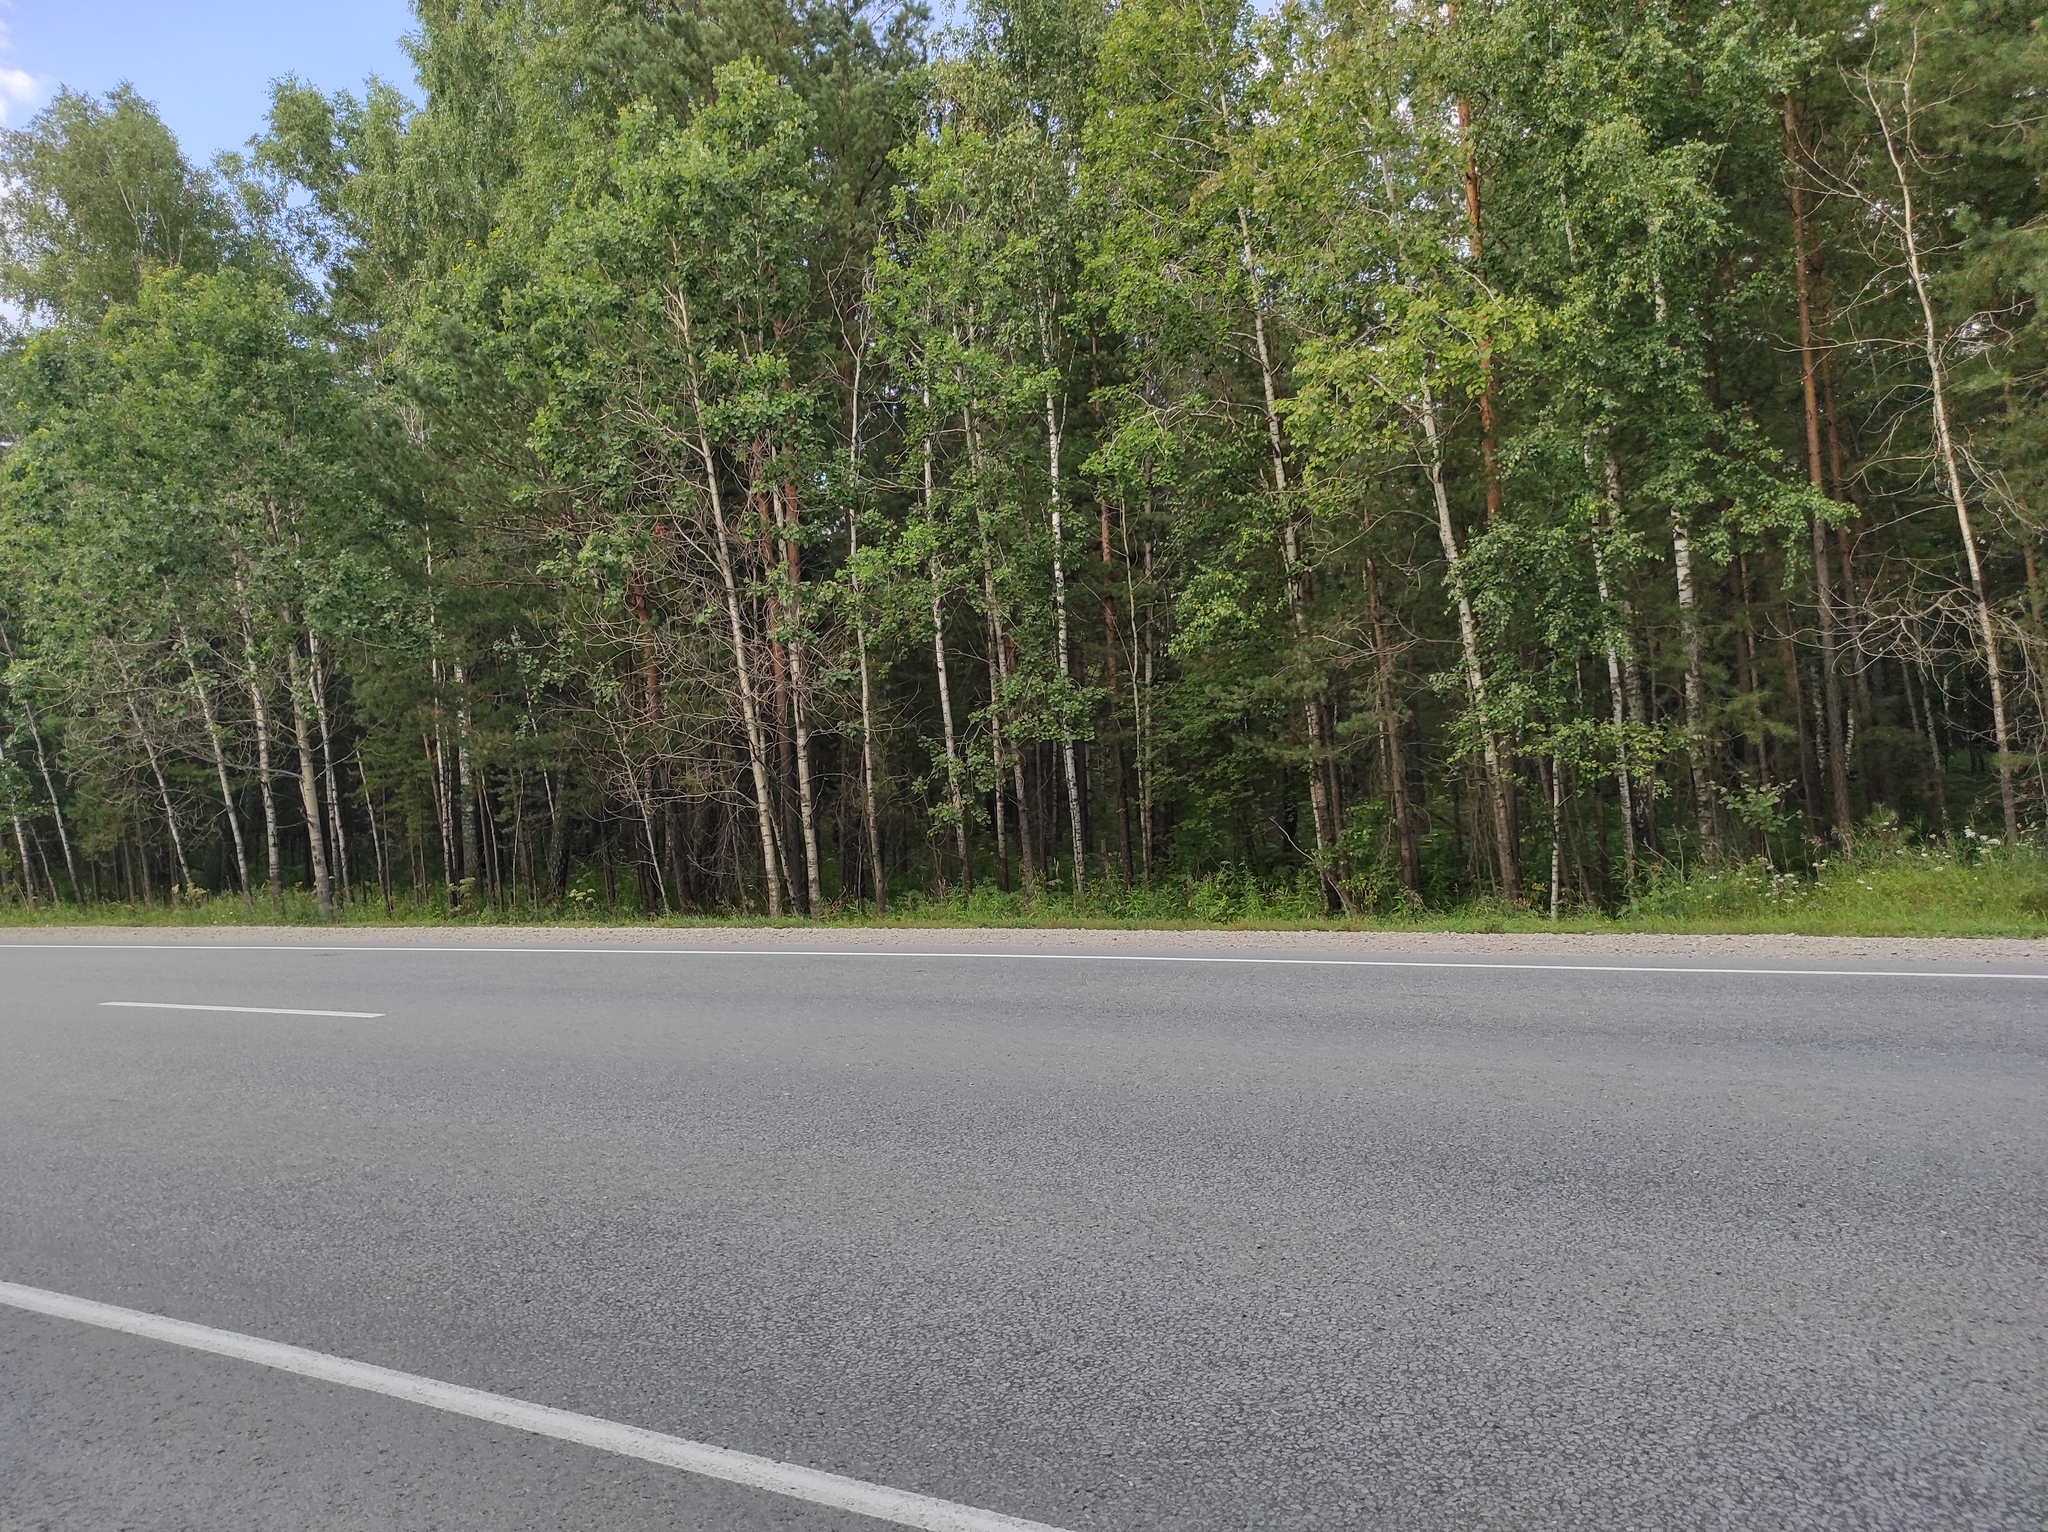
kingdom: Plantae
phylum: Tracheophyta
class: Pinopsida
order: Pinales
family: Pinaceae
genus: Pinus
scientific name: Pinus sylvestris
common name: Scots pine
